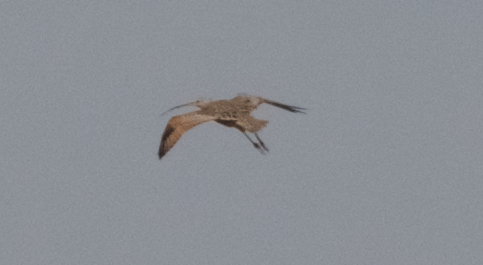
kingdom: Animalia
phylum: Chordata
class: Aves
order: Charadriiformes
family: Scolopacidae
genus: Numenius
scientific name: Numenius americanus
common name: Long-billed curlew
